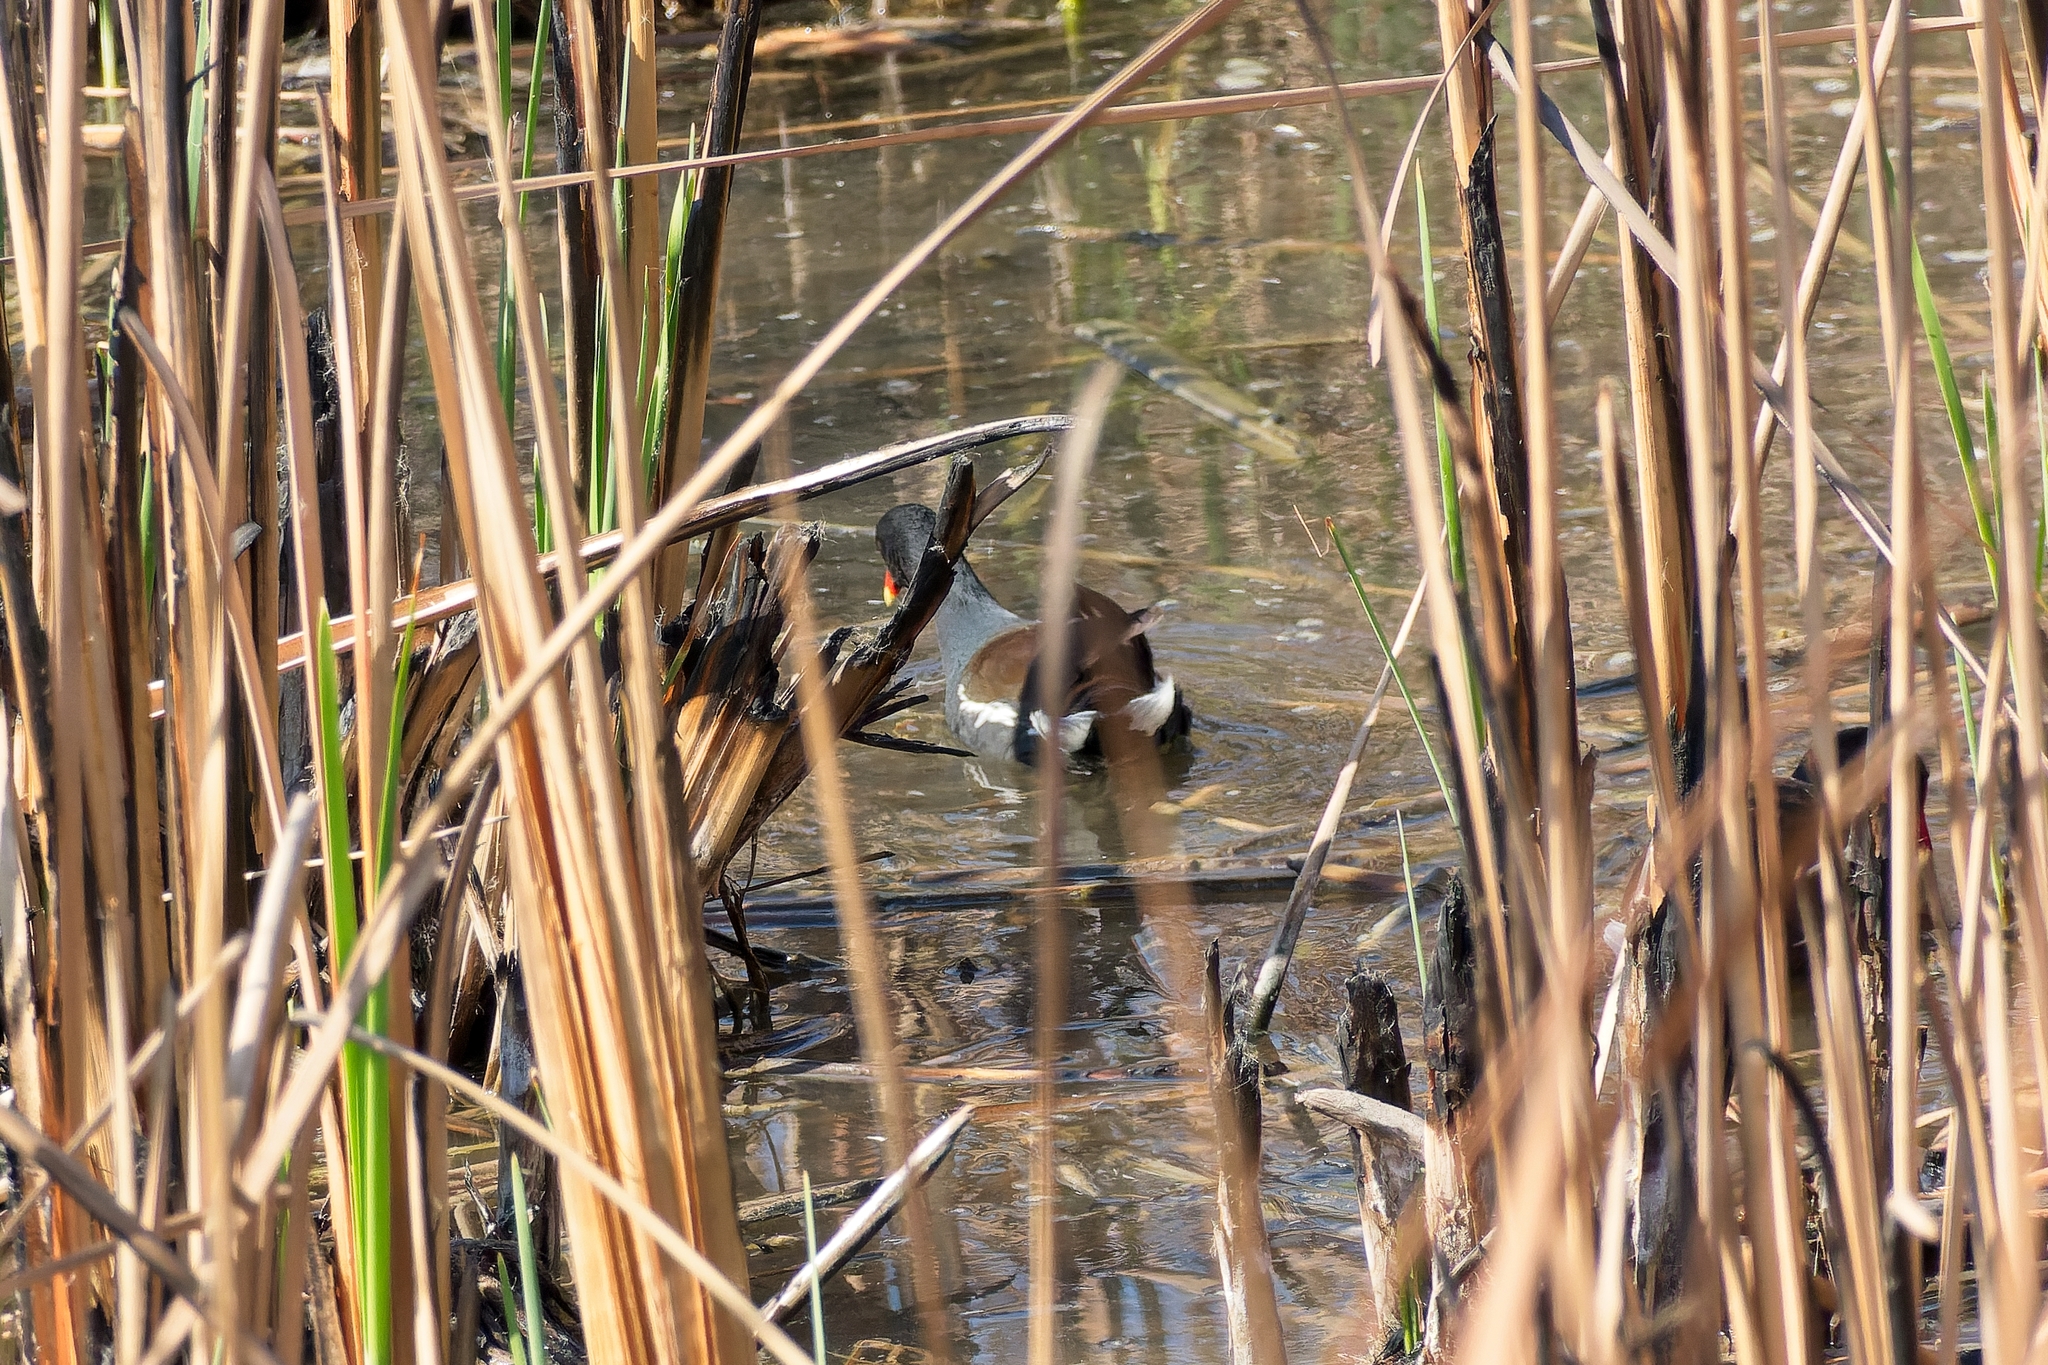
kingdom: Animalia
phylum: Chordata
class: Aves
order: Gruiformes
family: Rallidae
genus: Gallinula
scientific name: Gallinula chloropus
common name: Common moorhen
